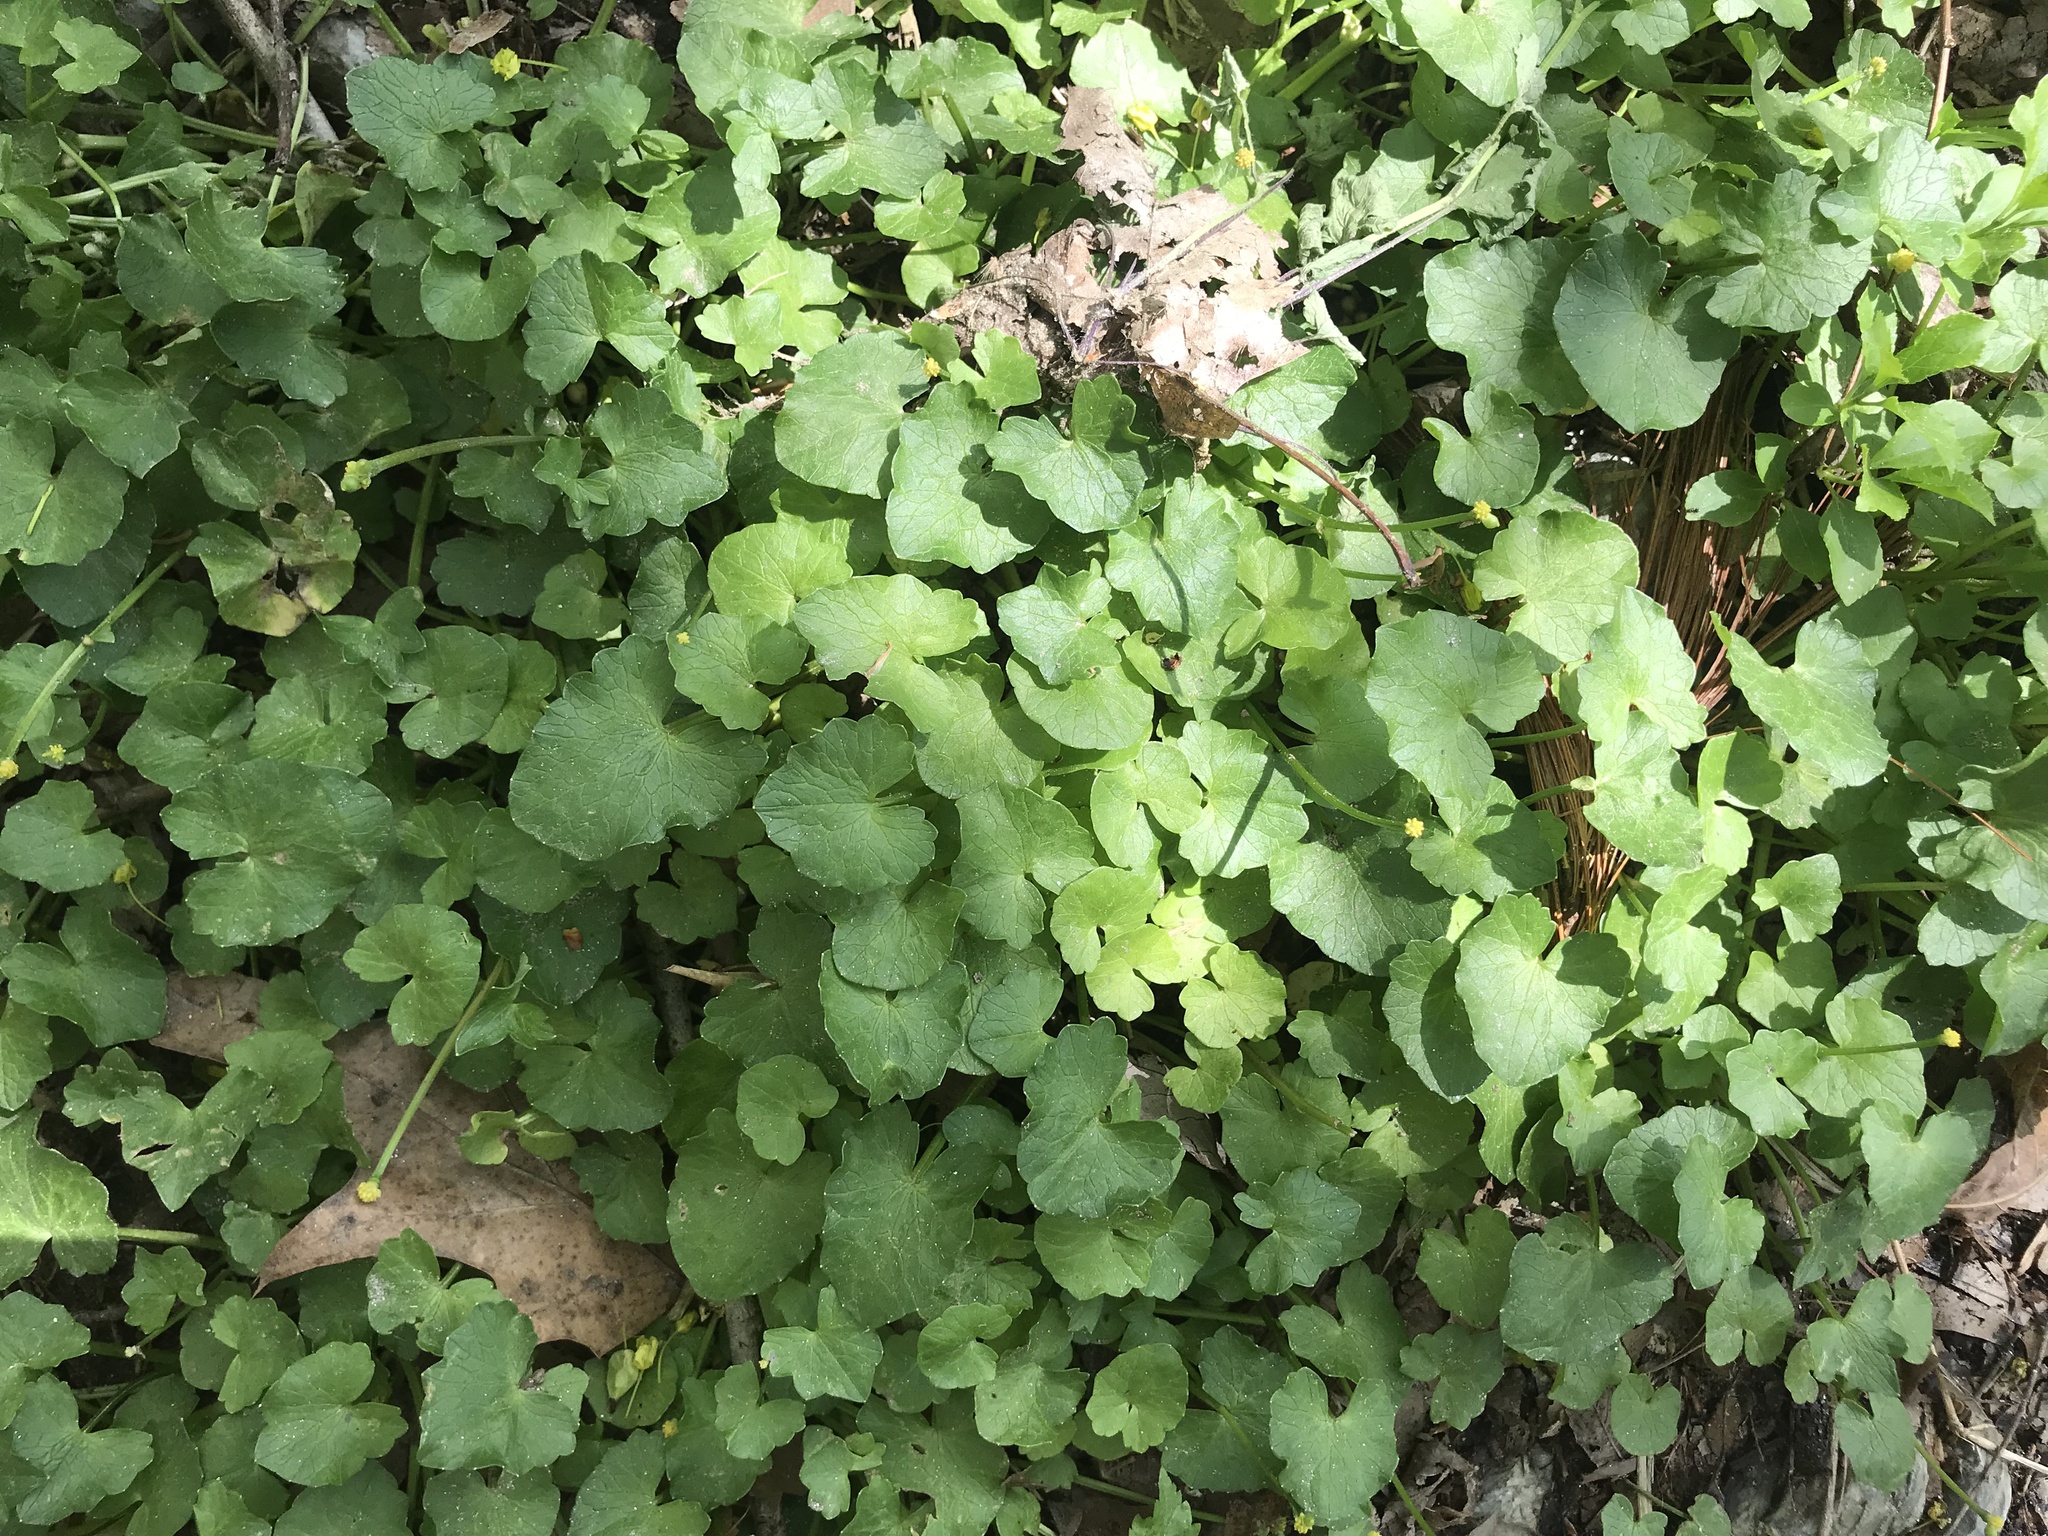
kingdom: Plantae
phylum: Tracheophyta
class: Magnoliopsida
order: Ranunculales
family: Ranunculaceae
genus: Ficaria
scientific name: Ficaria verna
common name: Lesser celandine
